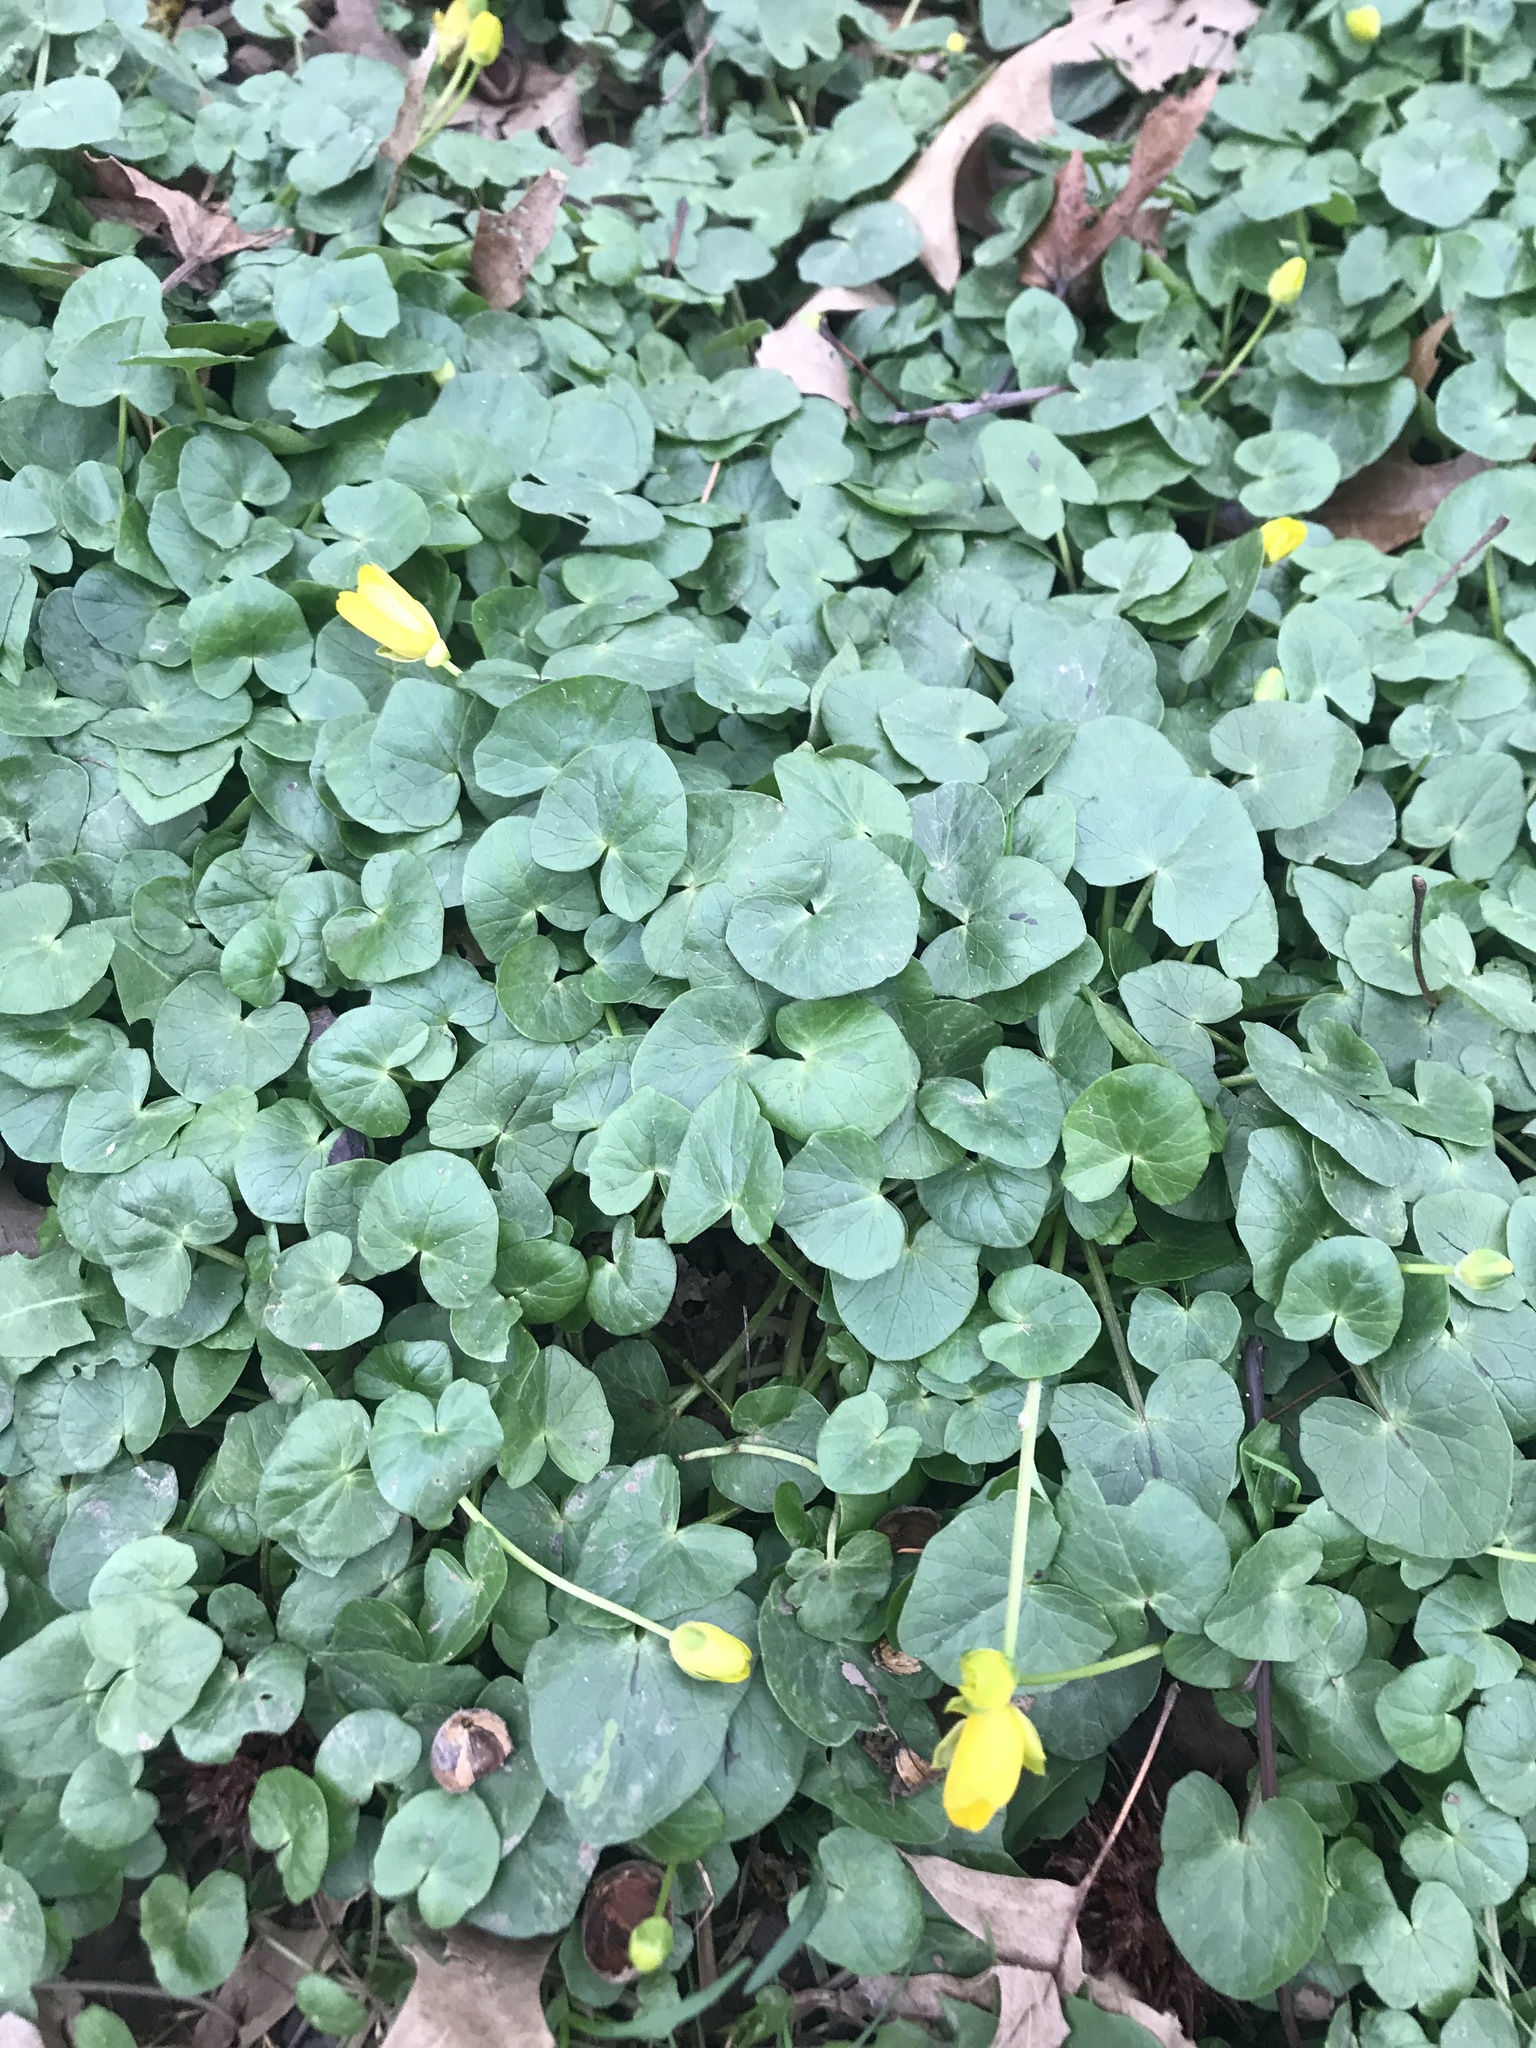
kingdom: Plantae
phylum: Tracheophyta
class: Magnoliopsida
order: Ranunculales
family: Ranunculaceae
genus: Ficaria
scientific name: Ficaria verna
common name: Lesser celandine
